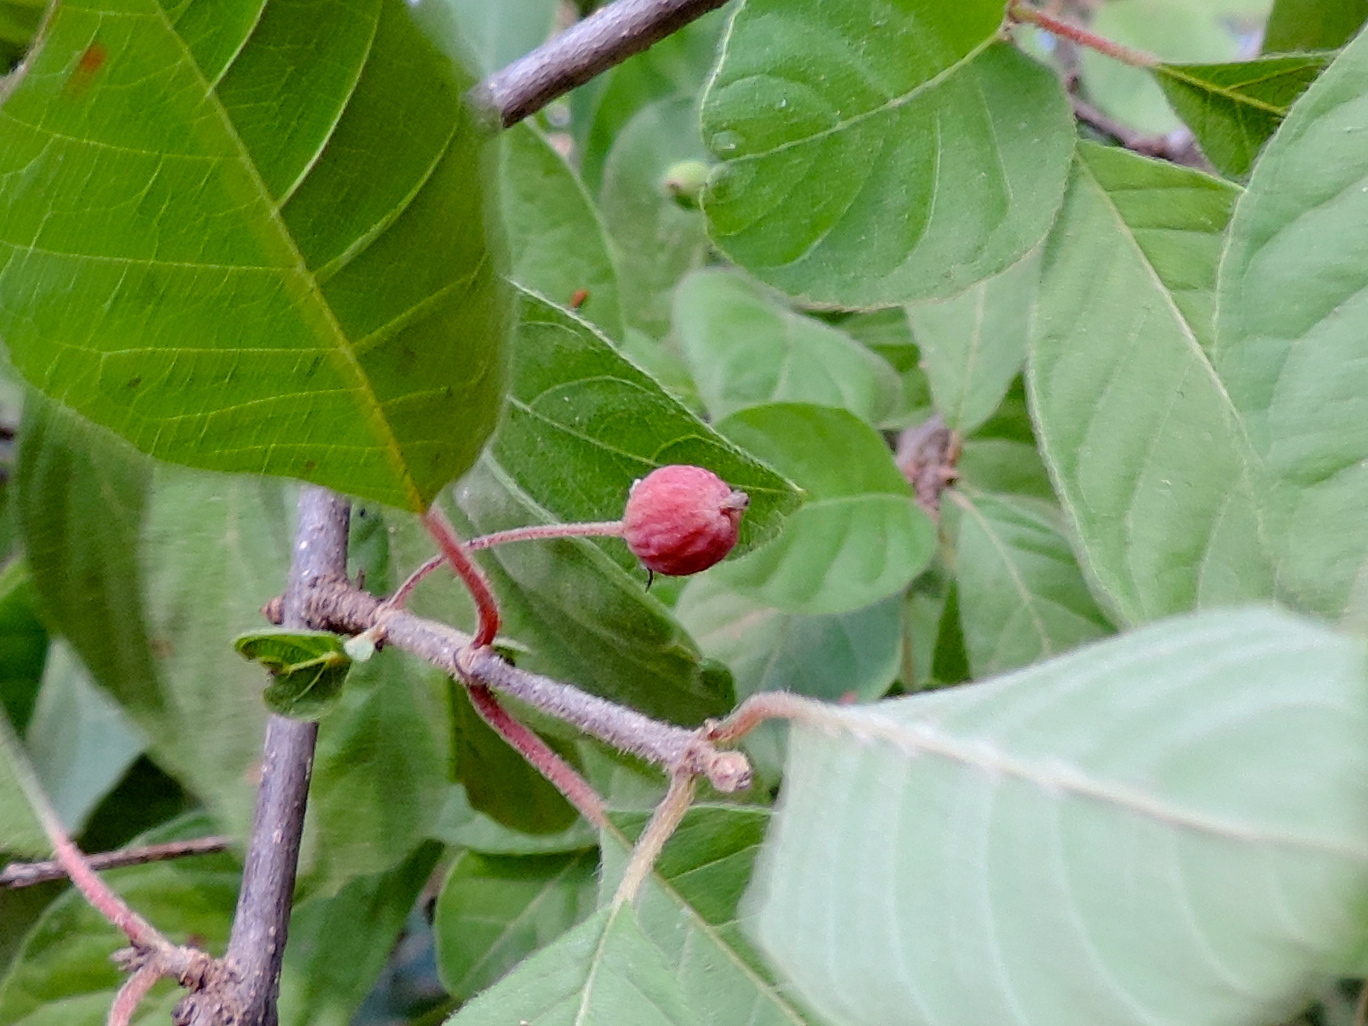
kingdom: Plantae
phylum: Tracheophyta
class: Magnoliopsida
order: Gentianales
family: Rubiaceae
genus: Guettarda
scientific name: Guettarda elliptica
